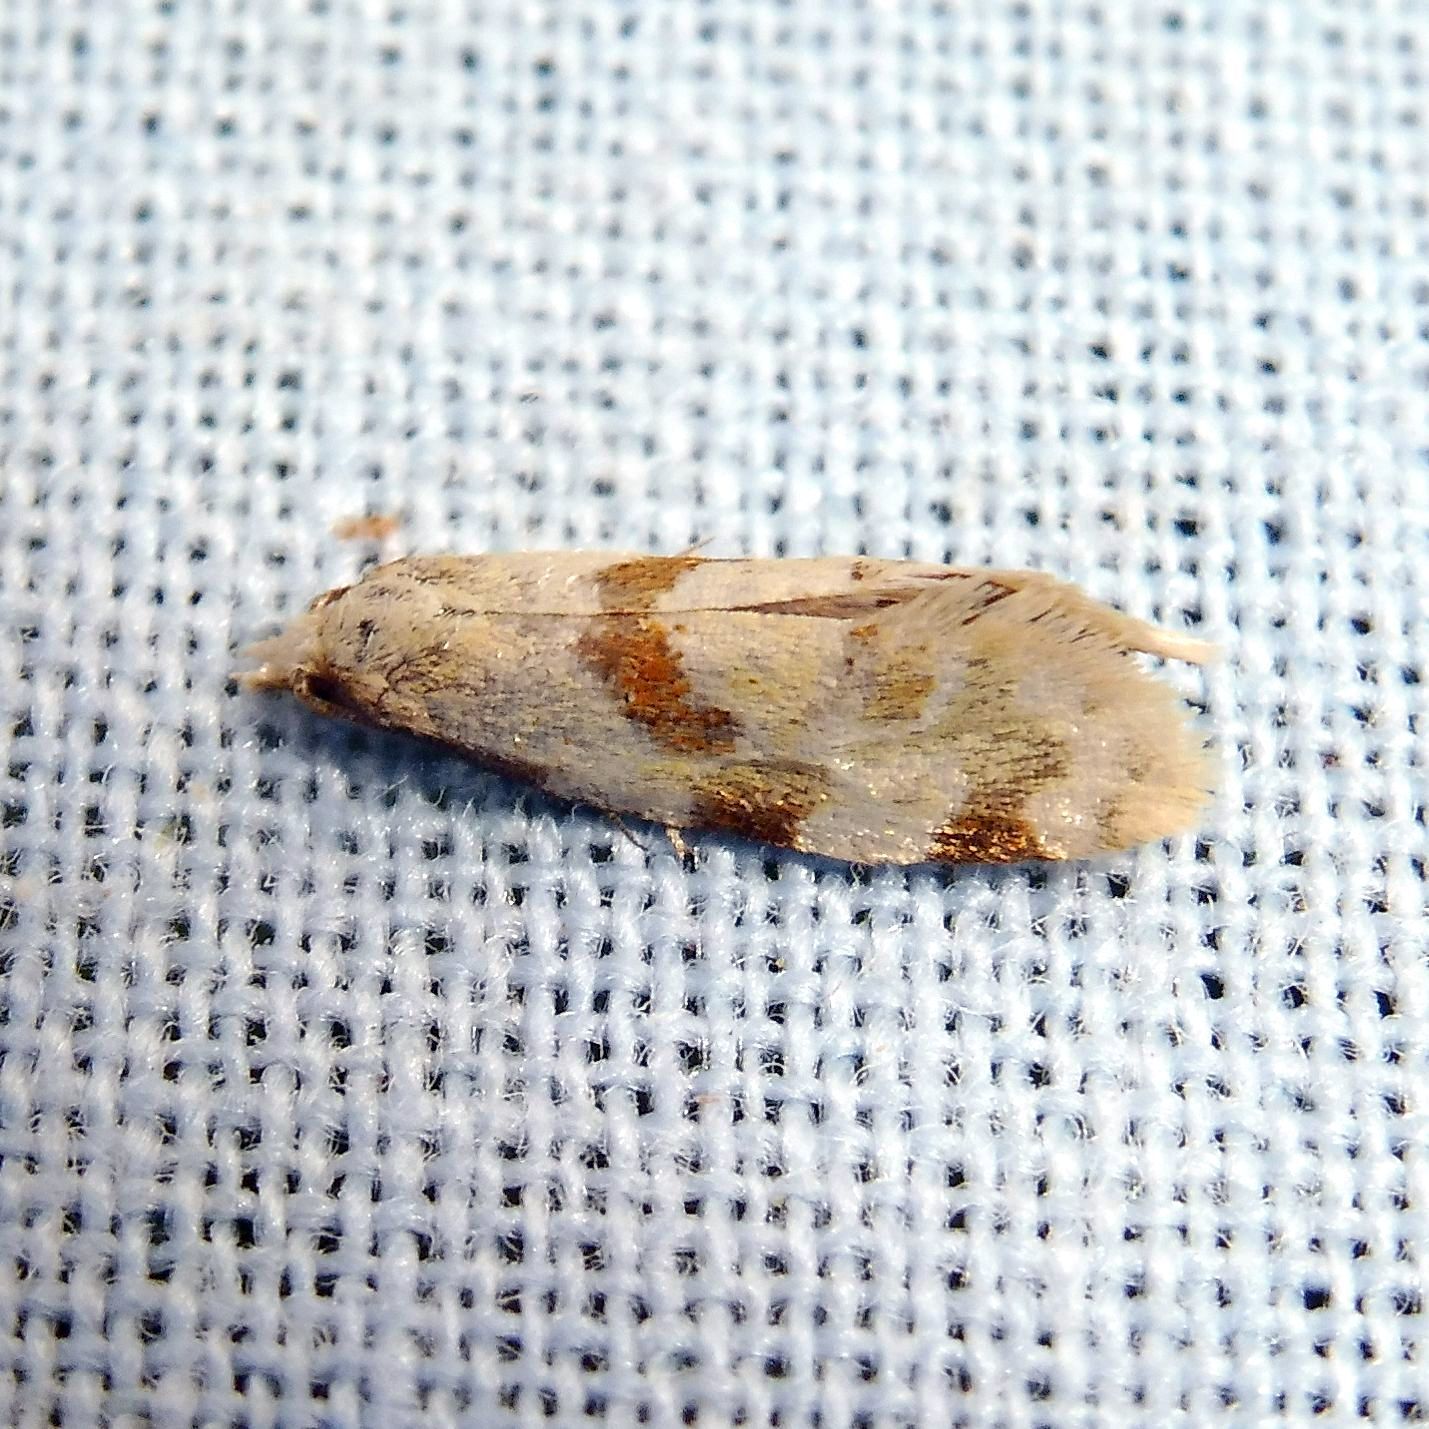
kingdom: Animalia
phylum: Arthropoda
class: Insecta
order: Lepidoptera
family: Tortricidae
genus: Aethes
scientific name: Aethes cnicana
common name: Thistle conch
